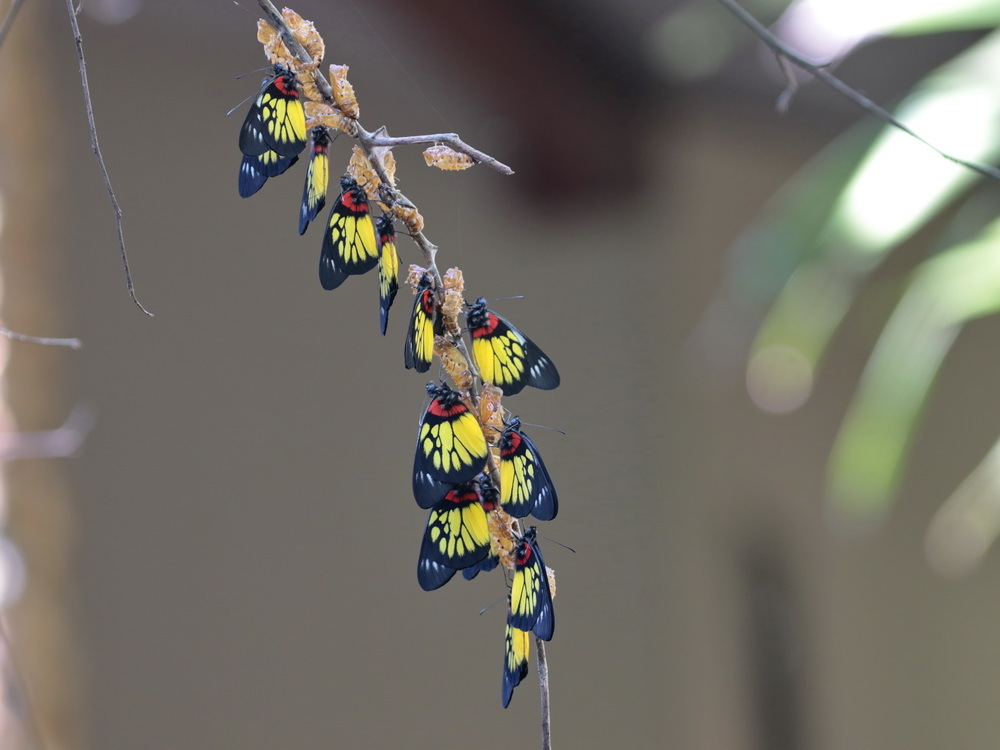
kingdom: Animalia
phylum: Arthropoda
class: Insecta
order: Lepidoptera
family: Pieridae
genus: Delias
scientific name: Delias pasithoe
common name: Red-base jezebel
